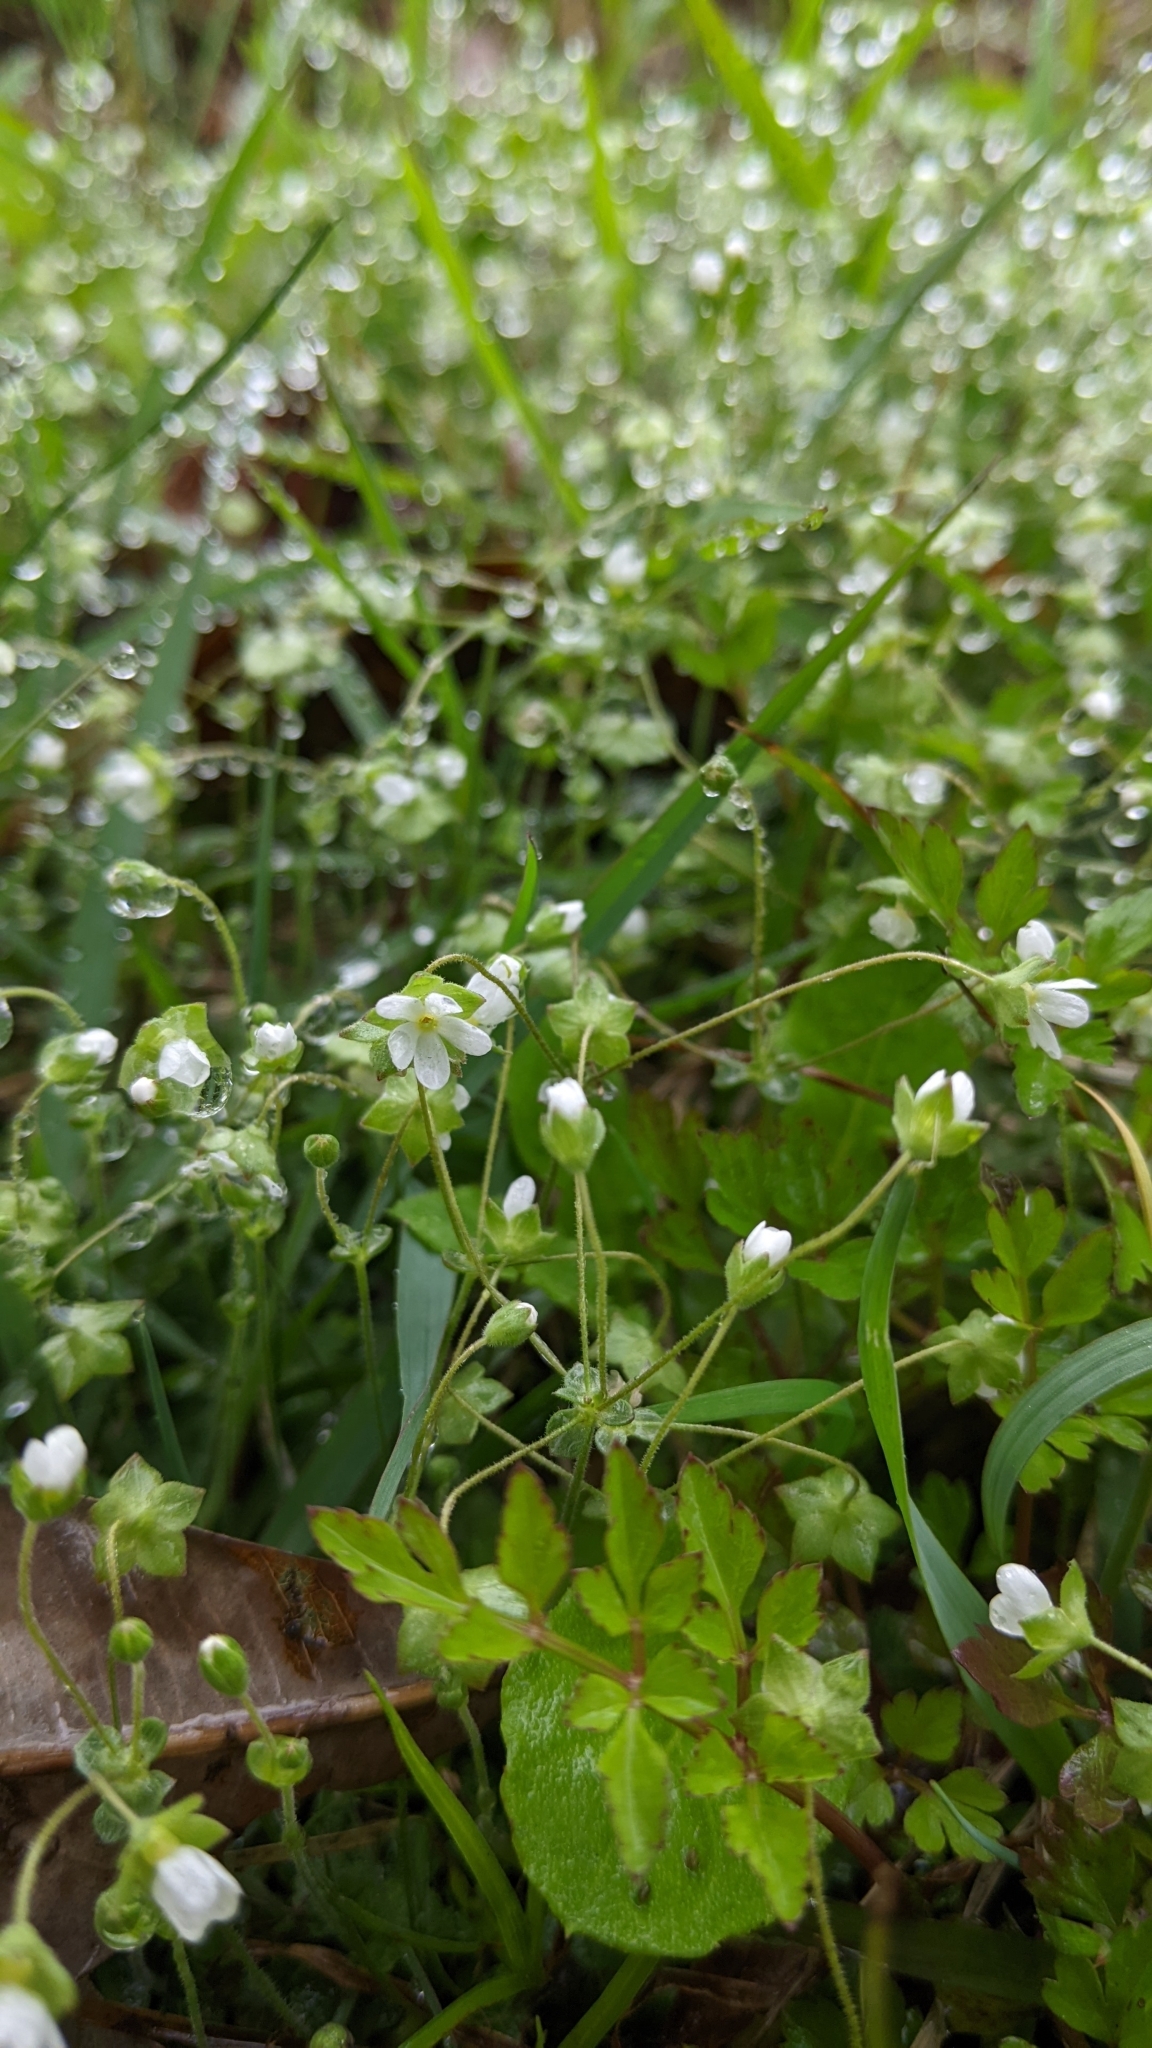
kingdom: Plantae
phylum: Tracheophyta
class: Magnoliopsida
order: Ericales
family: Primulaceae
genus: Androsace
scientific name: Androsace umbellata
